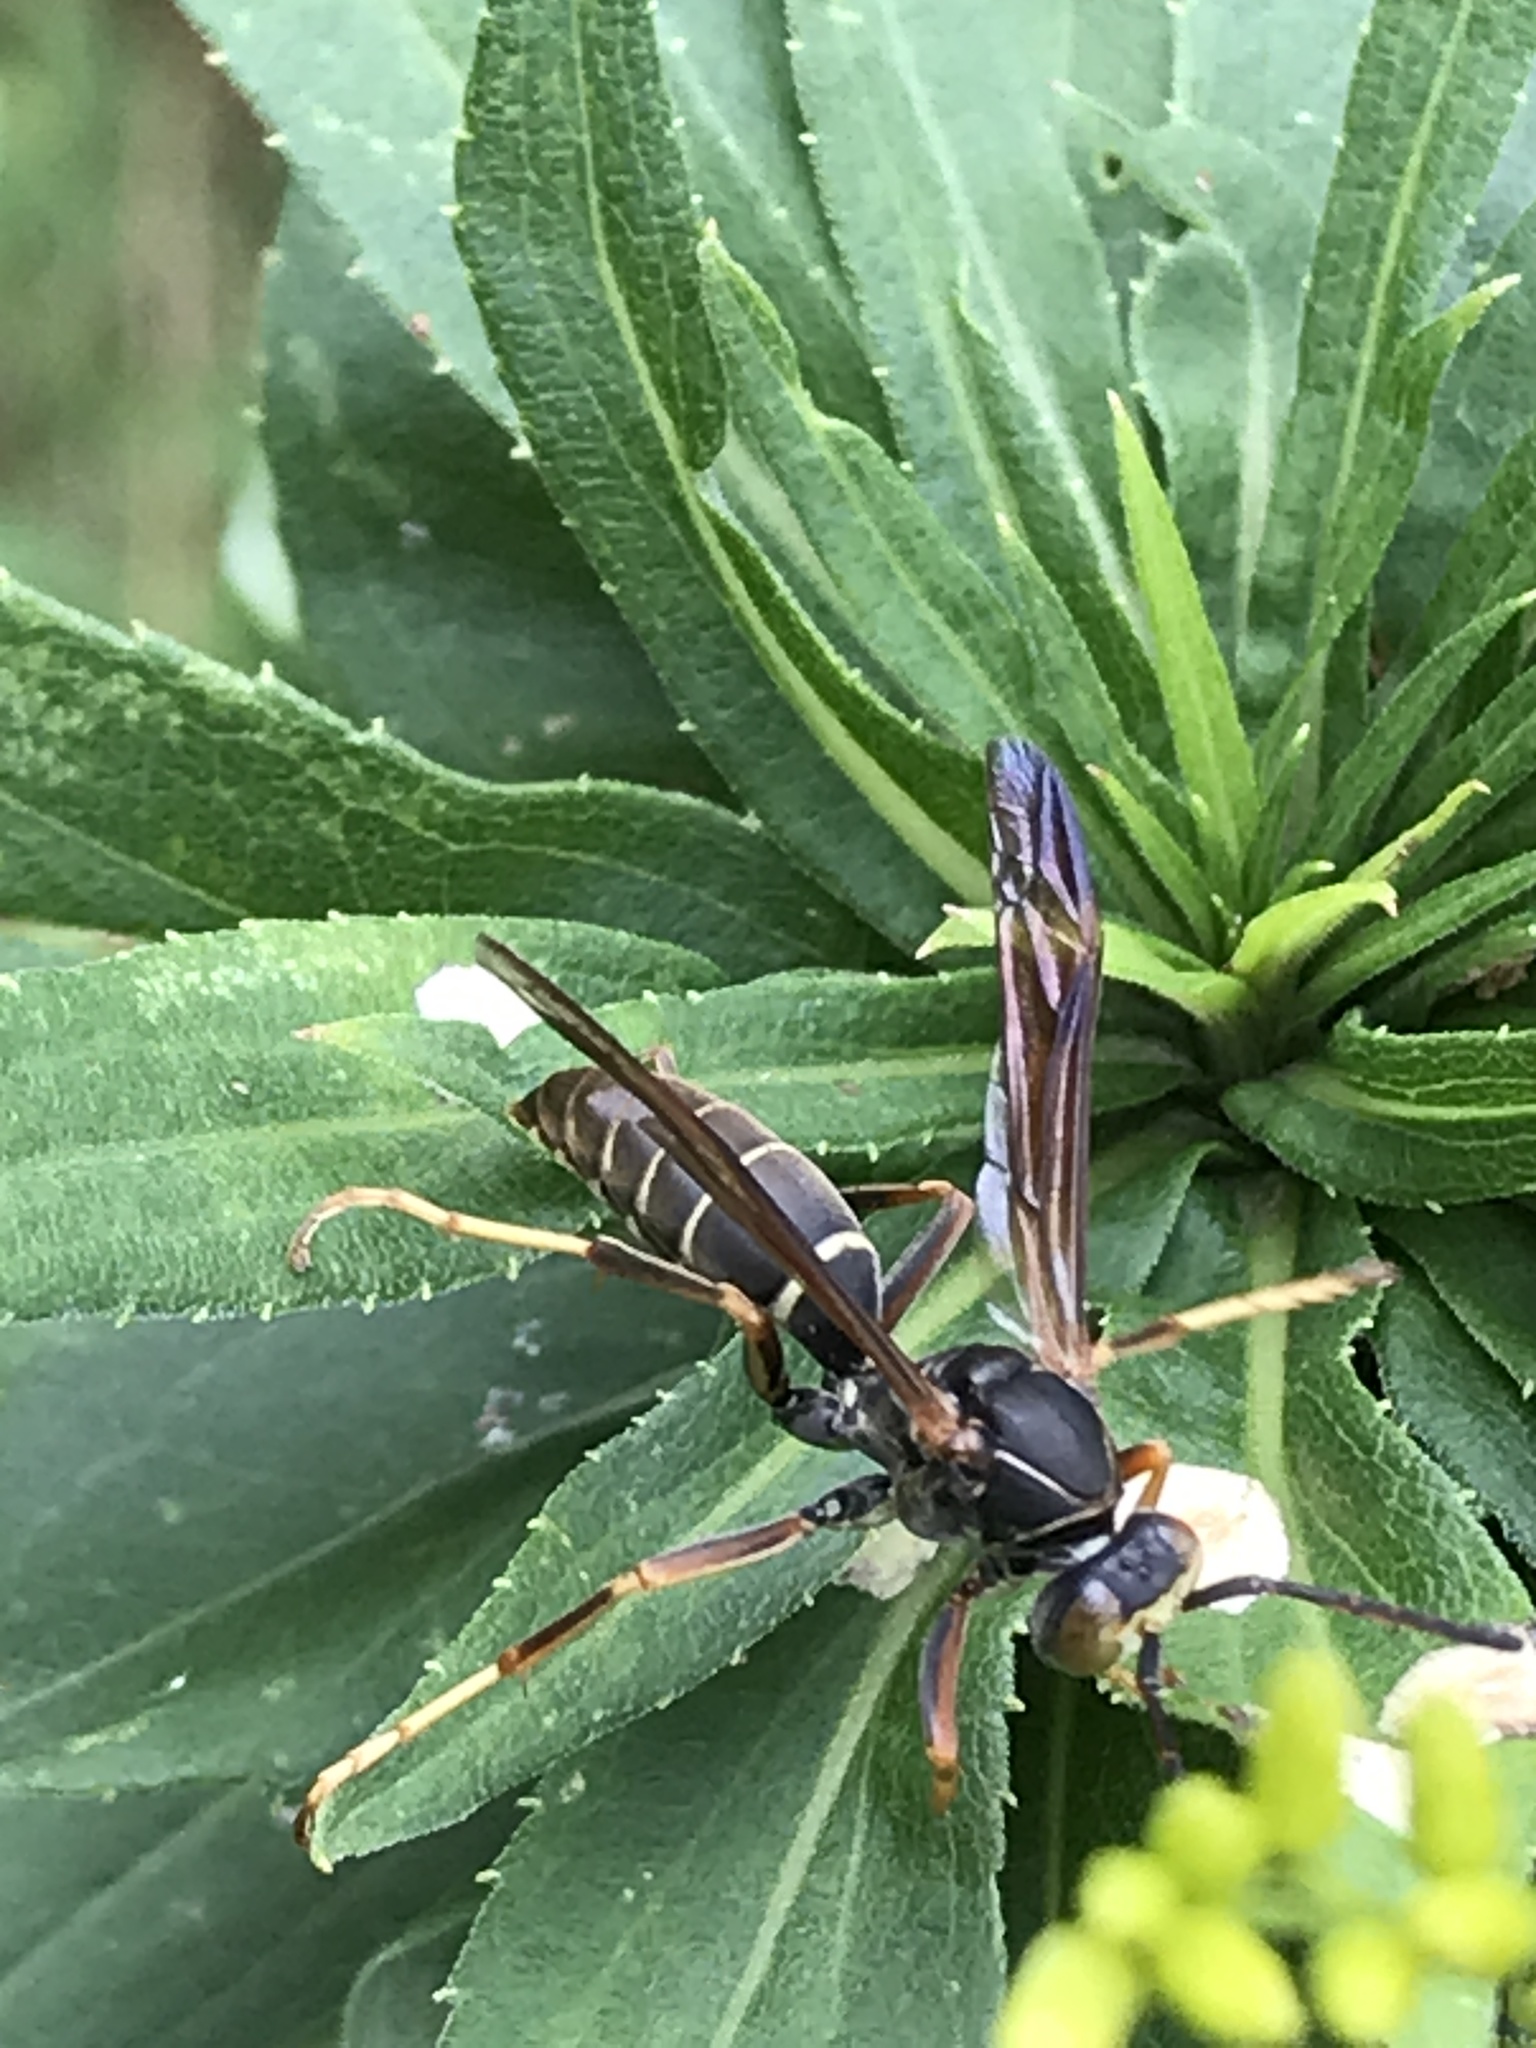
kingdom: Animalia
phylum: Arthropoda
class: Insecta
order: Hymenoptera
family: Eumenidae
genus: Polistes
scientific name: Polistes fuscatus
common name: Dark paper wasp
